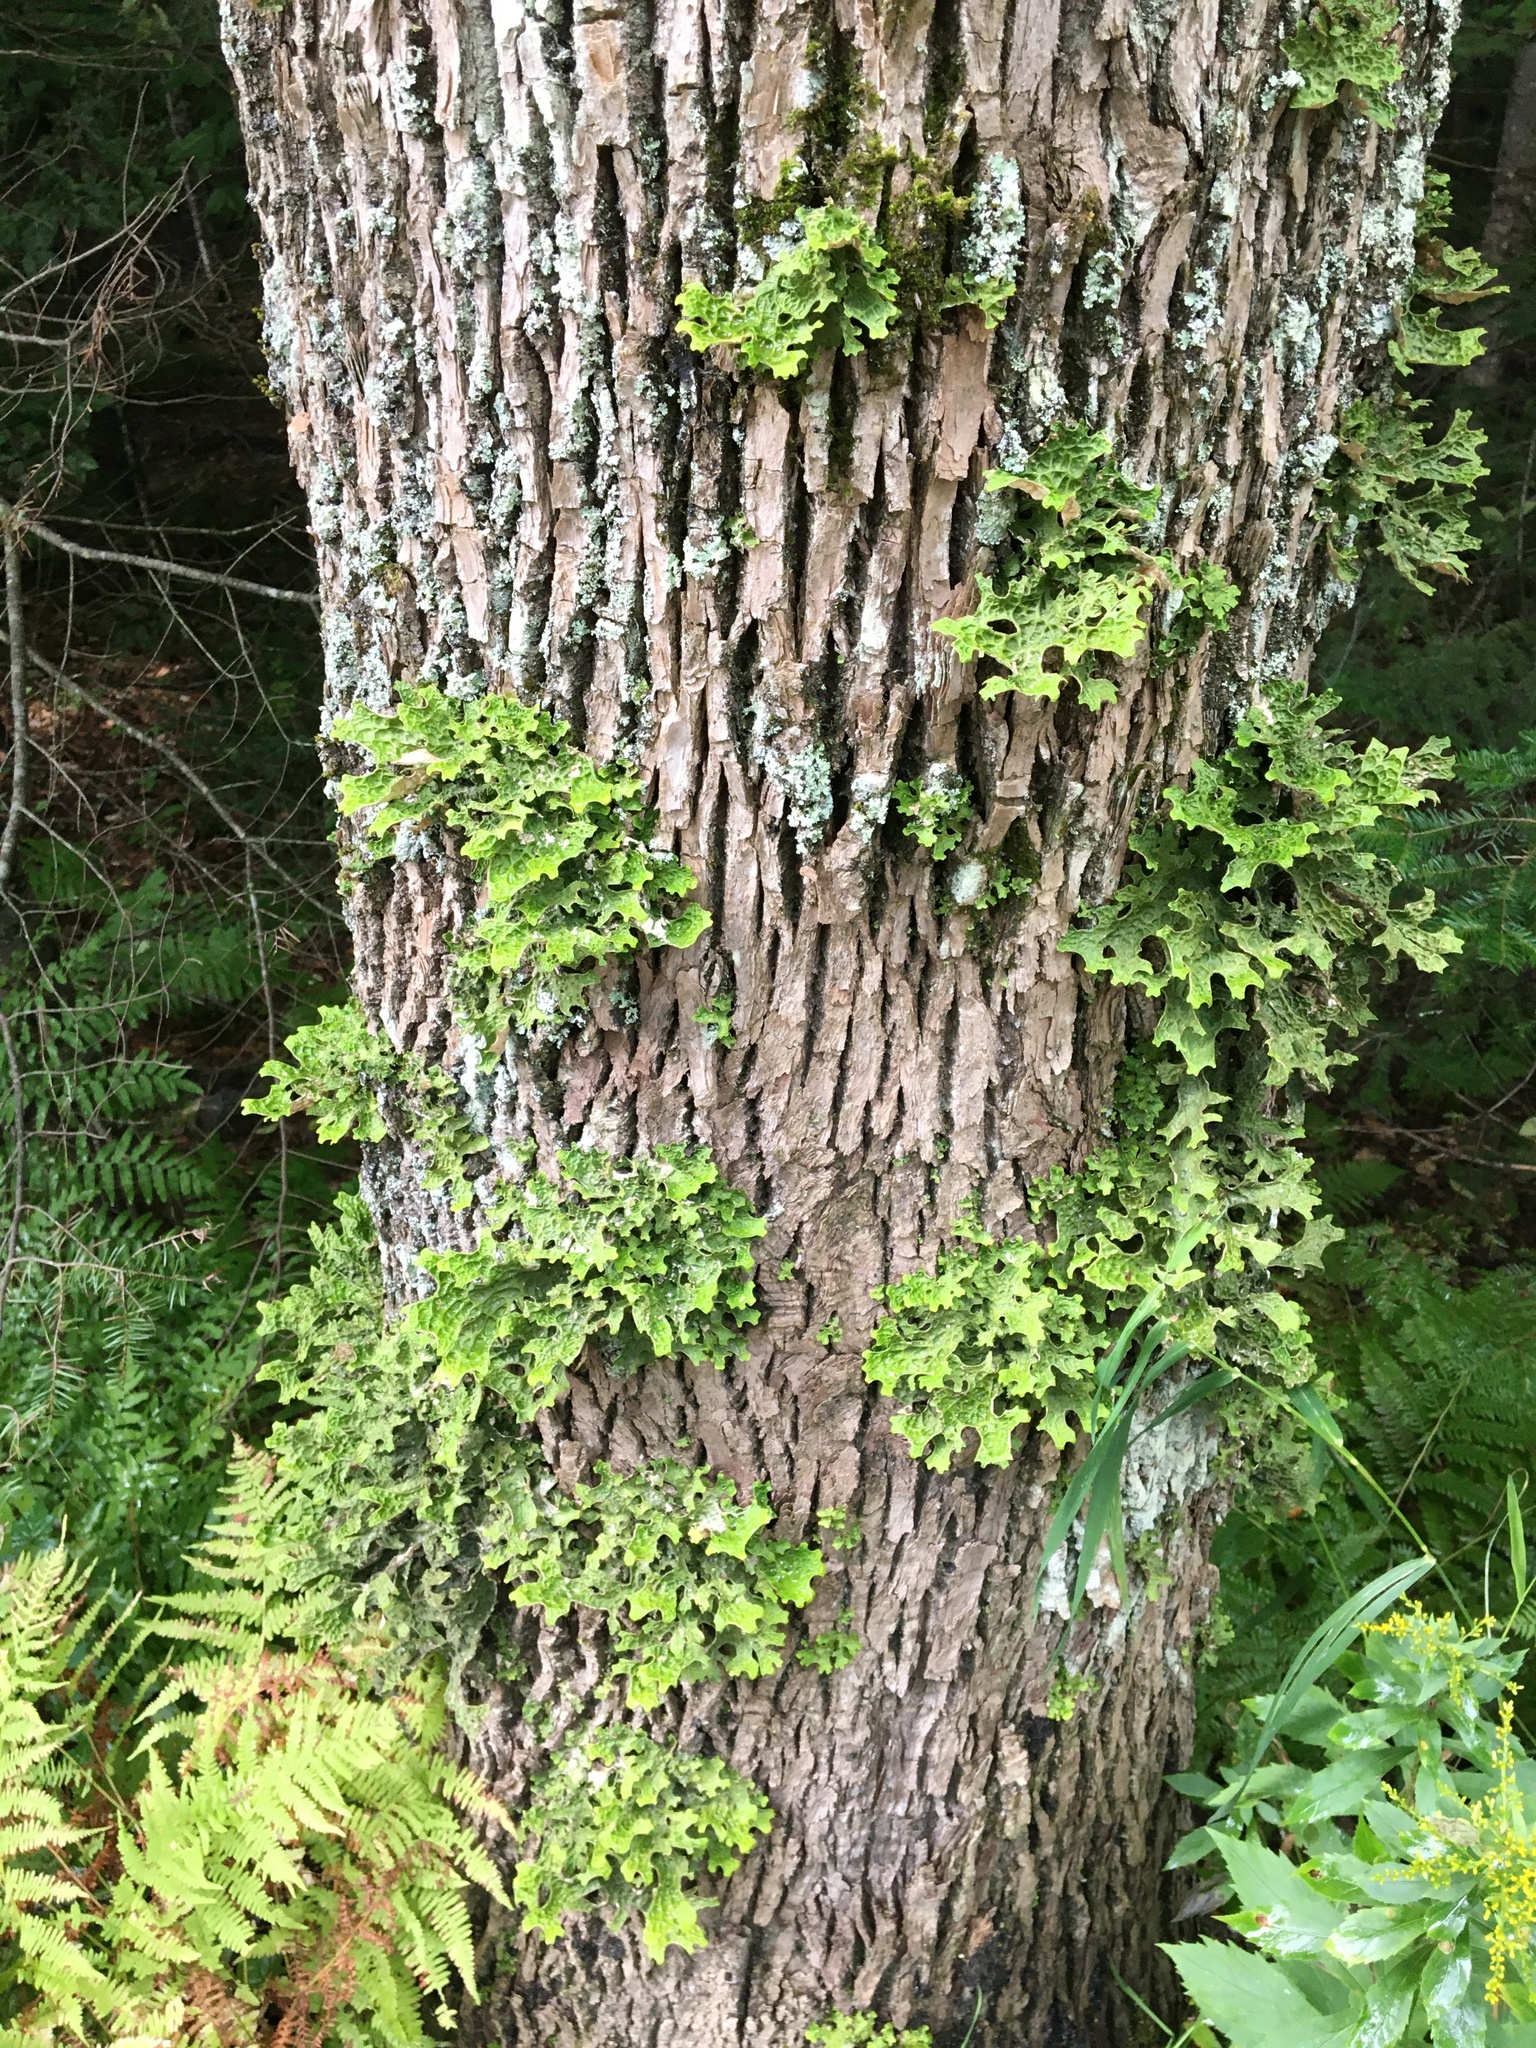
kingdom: Fungi
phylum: Ascomycota
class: Lecanoromycetes
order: Peltigerales
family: Lobariaceae
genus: Lobaria
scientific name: Lobaria pulmonaria
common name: Lungwort
